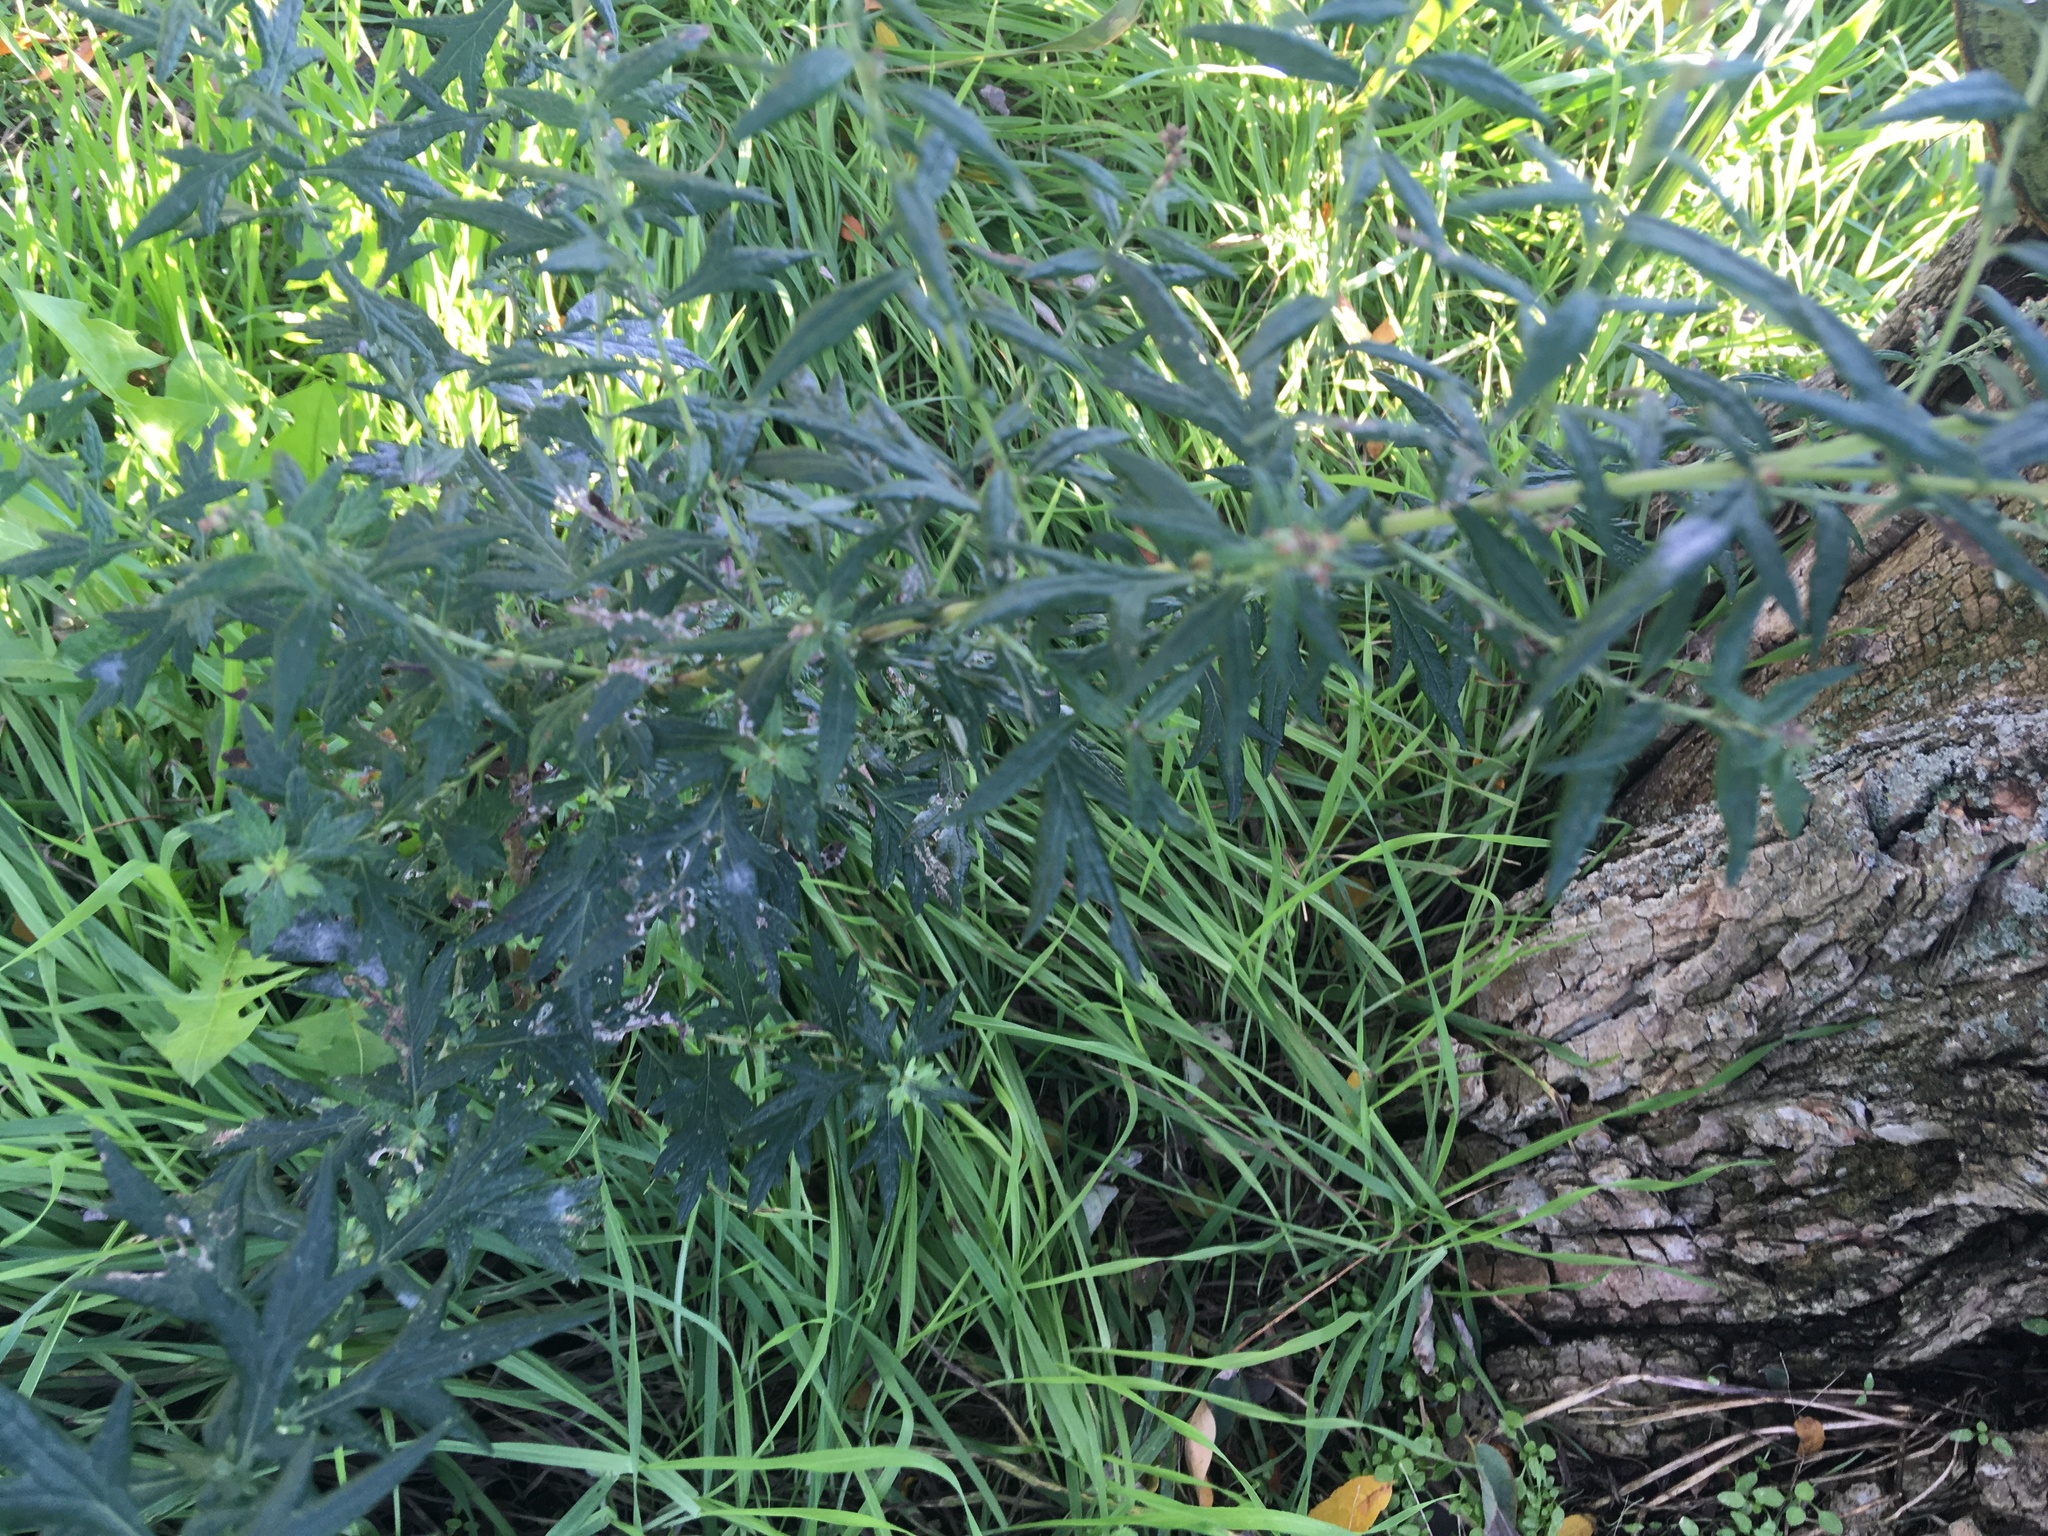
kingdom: Plantae
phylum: Tracheophyta
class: Magnoliopsida
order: Asterales
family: Asteraceae
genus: Artemisia
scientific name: Artemisia vulgaris
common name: Mugwort
